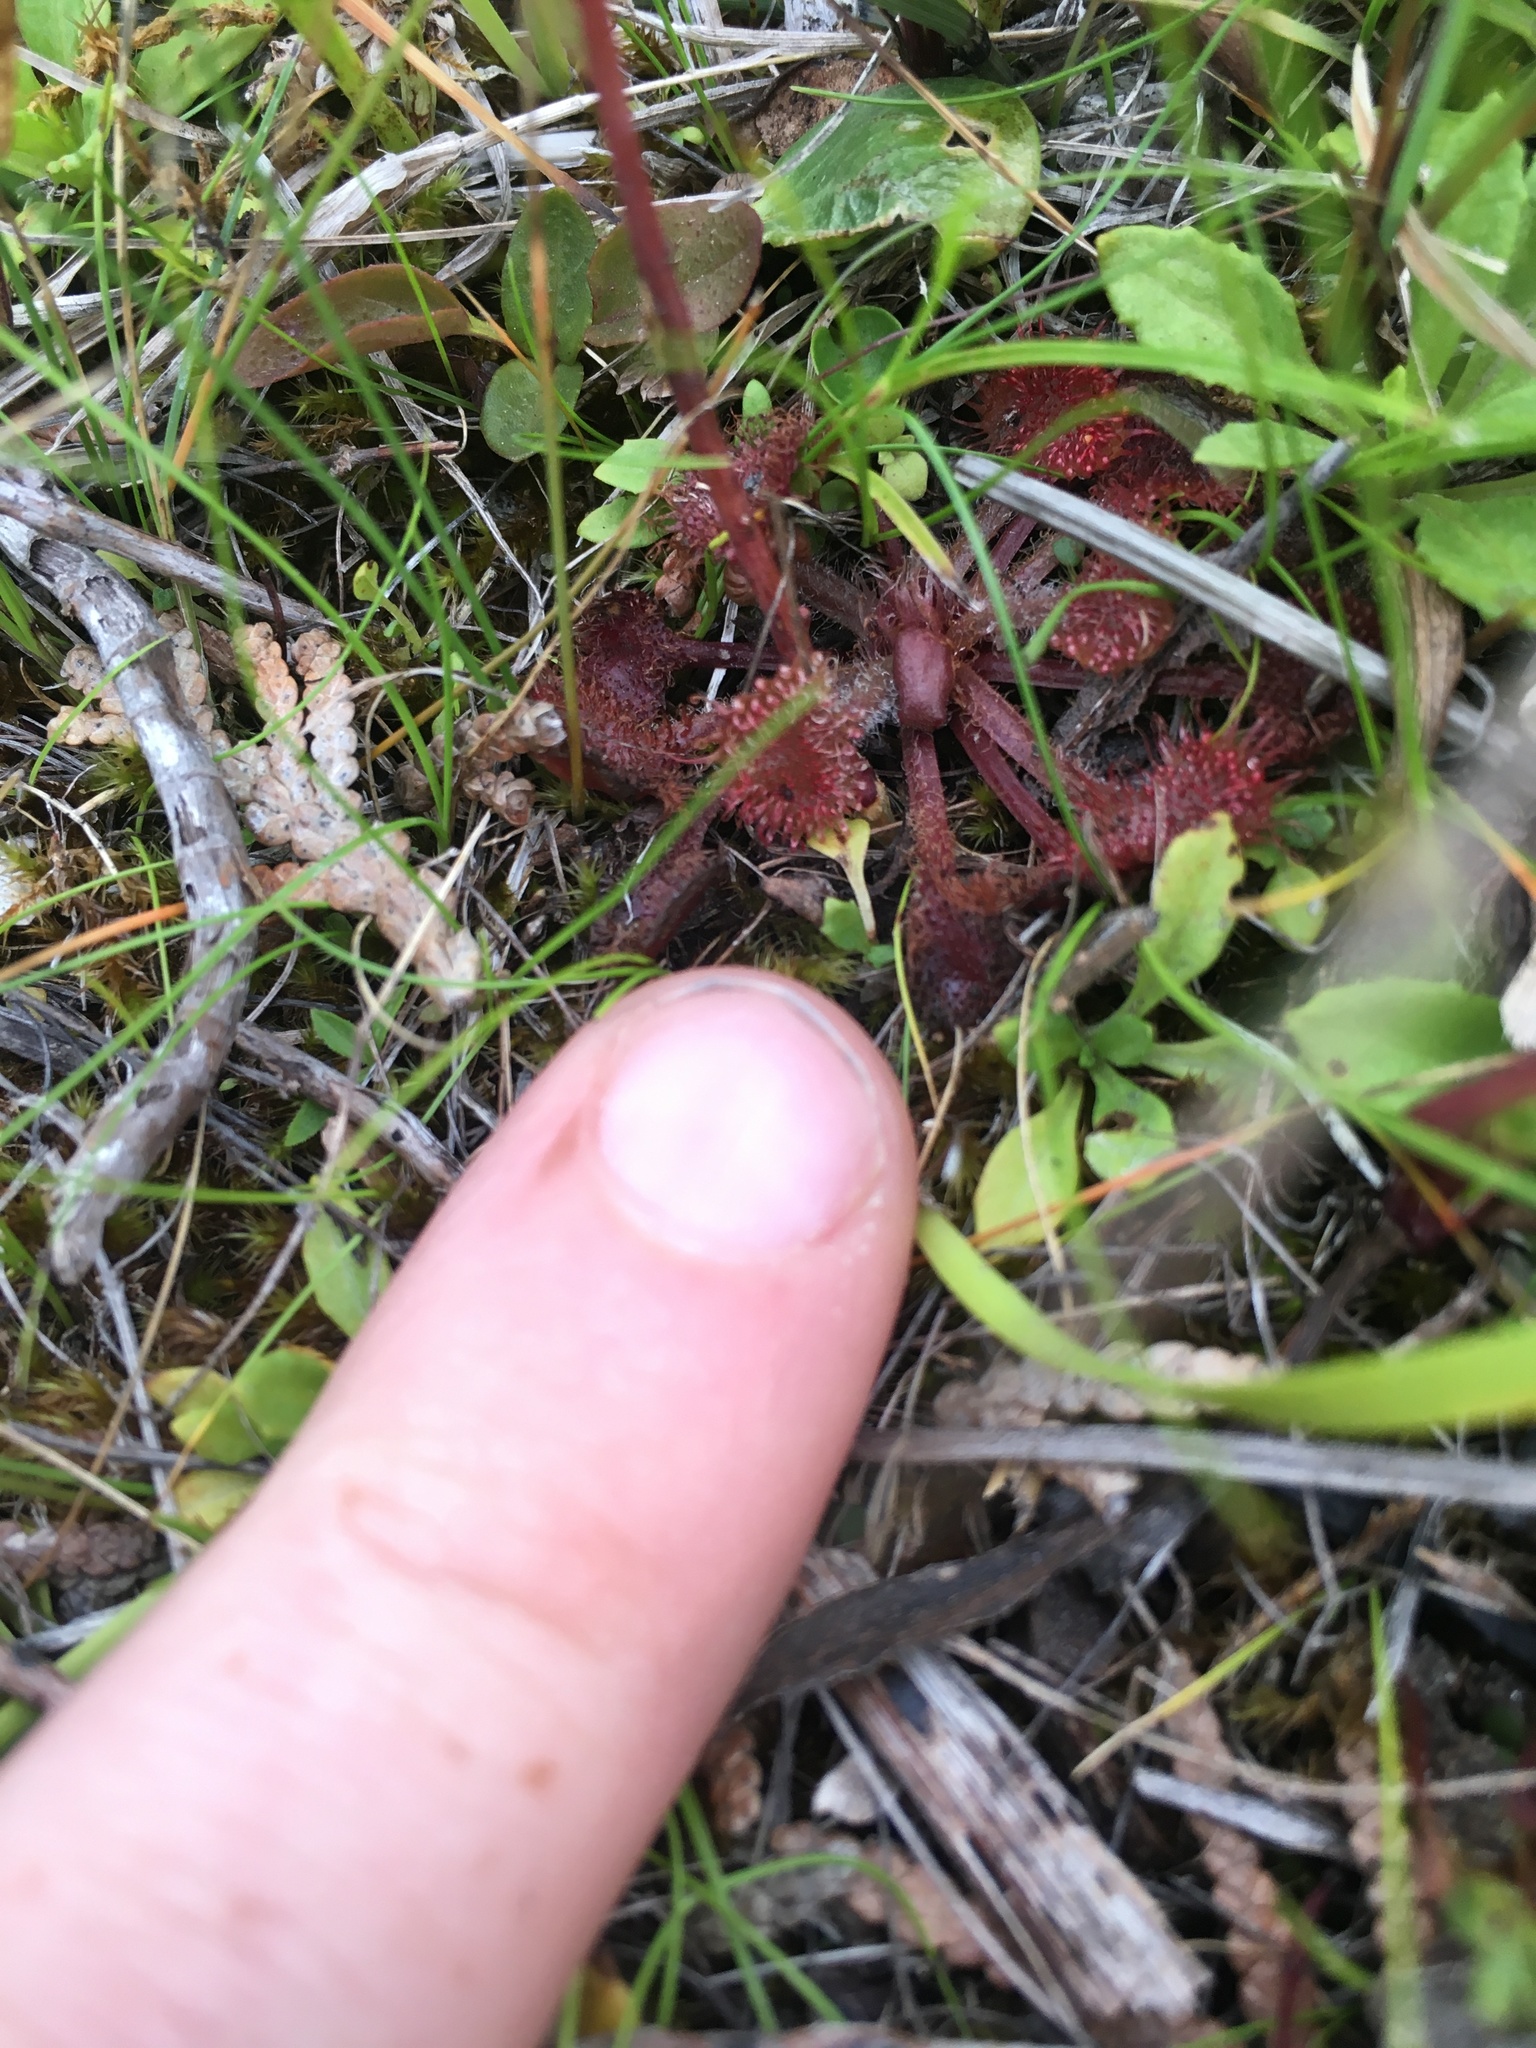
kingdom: Plantae
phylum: Tracheophyta
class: Magnoliopsida
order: Caryophyllales
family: Droseraceae
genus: Drosera
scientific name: Drosera rotundifolia
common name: Round-leaved sundew
